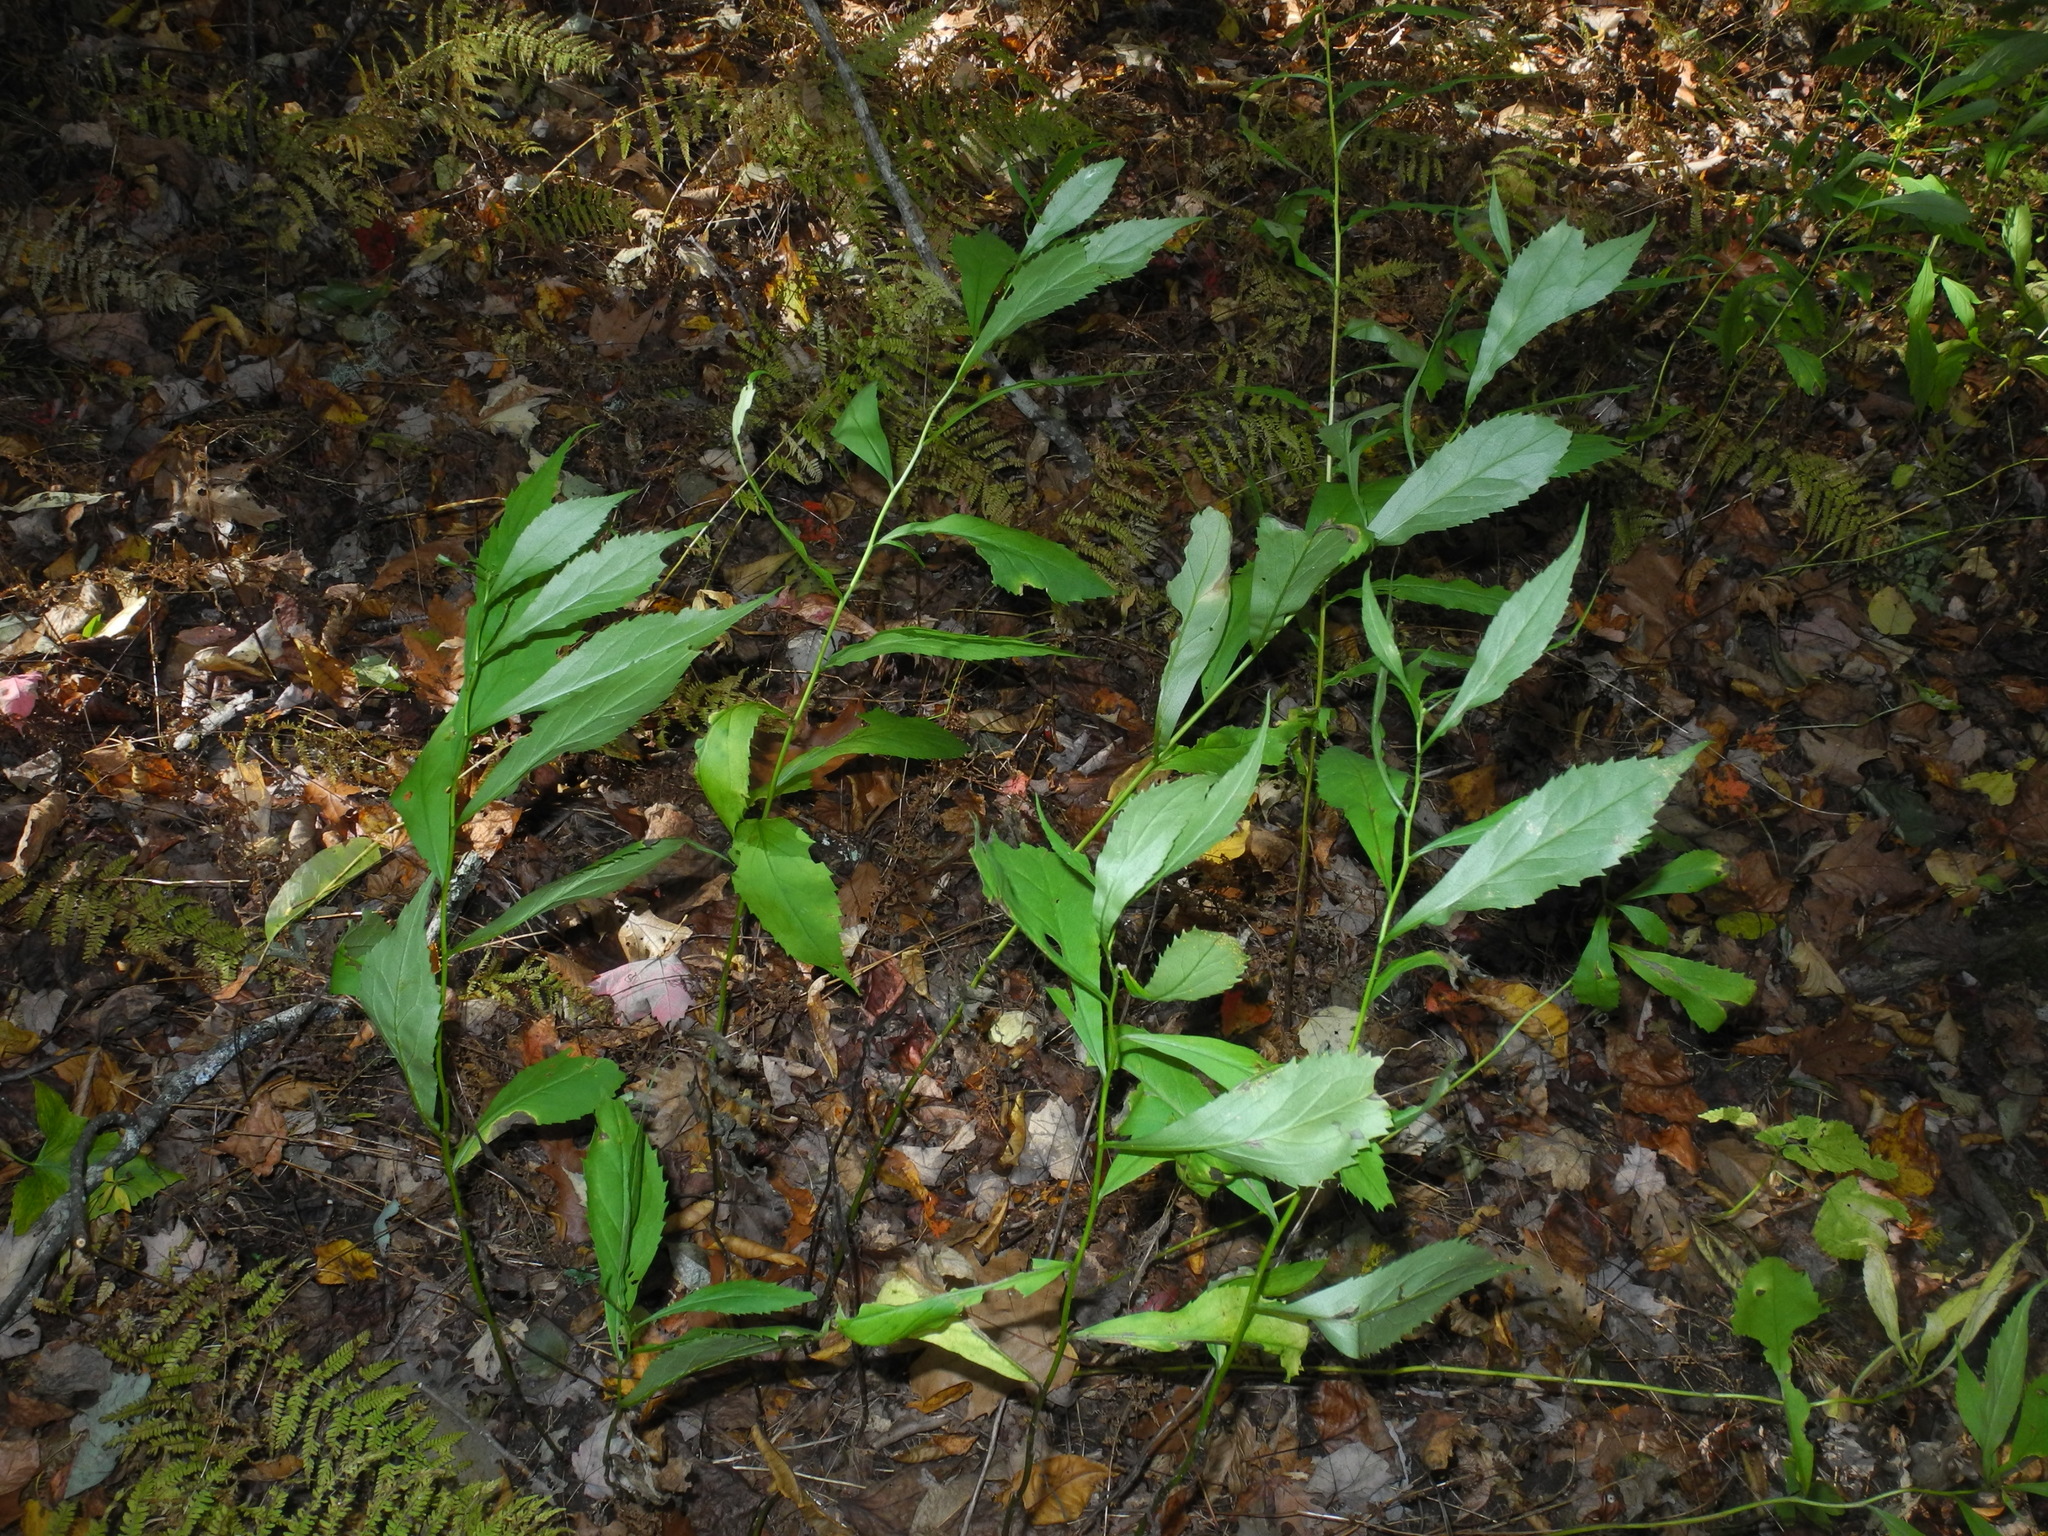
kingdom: Plantae
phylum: Tracheophyta
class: Magnoliopsida
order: Asterales
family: Asteraceae
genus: Solidago
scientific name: Solidago curtisii
